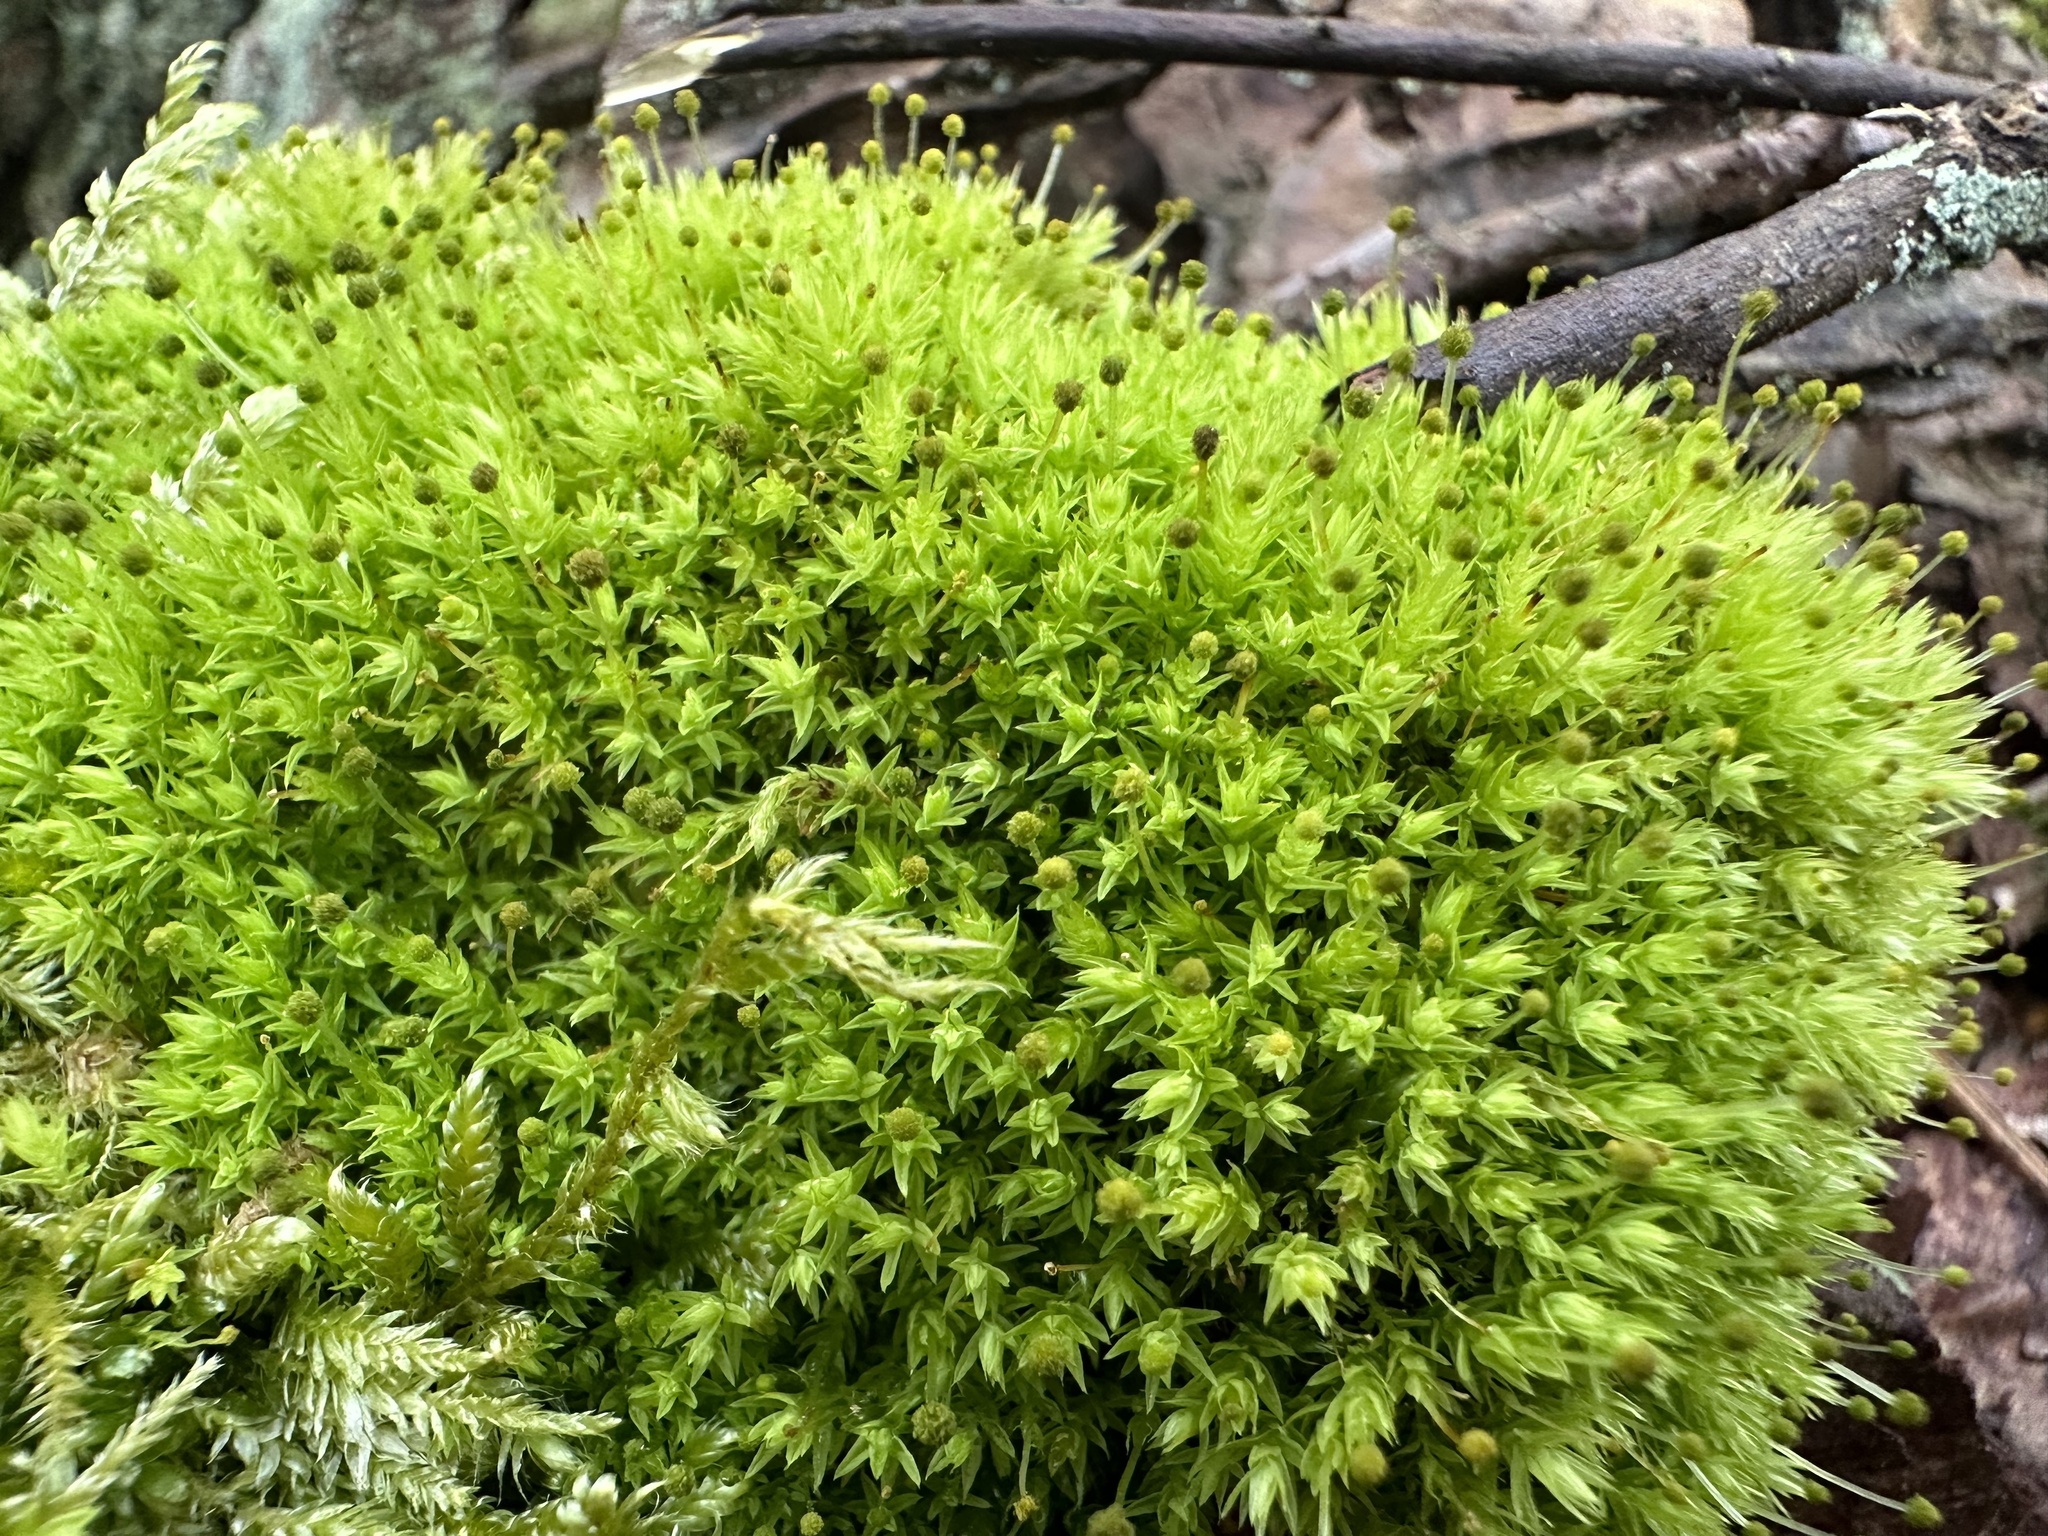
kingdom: Plantae
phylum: Bryophyta
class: Bryopsida
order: Aulacomniales
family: Aulacomniaceae
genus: Aulacomnium
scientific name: Aulacomnium androgynum
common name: Little groove moss
